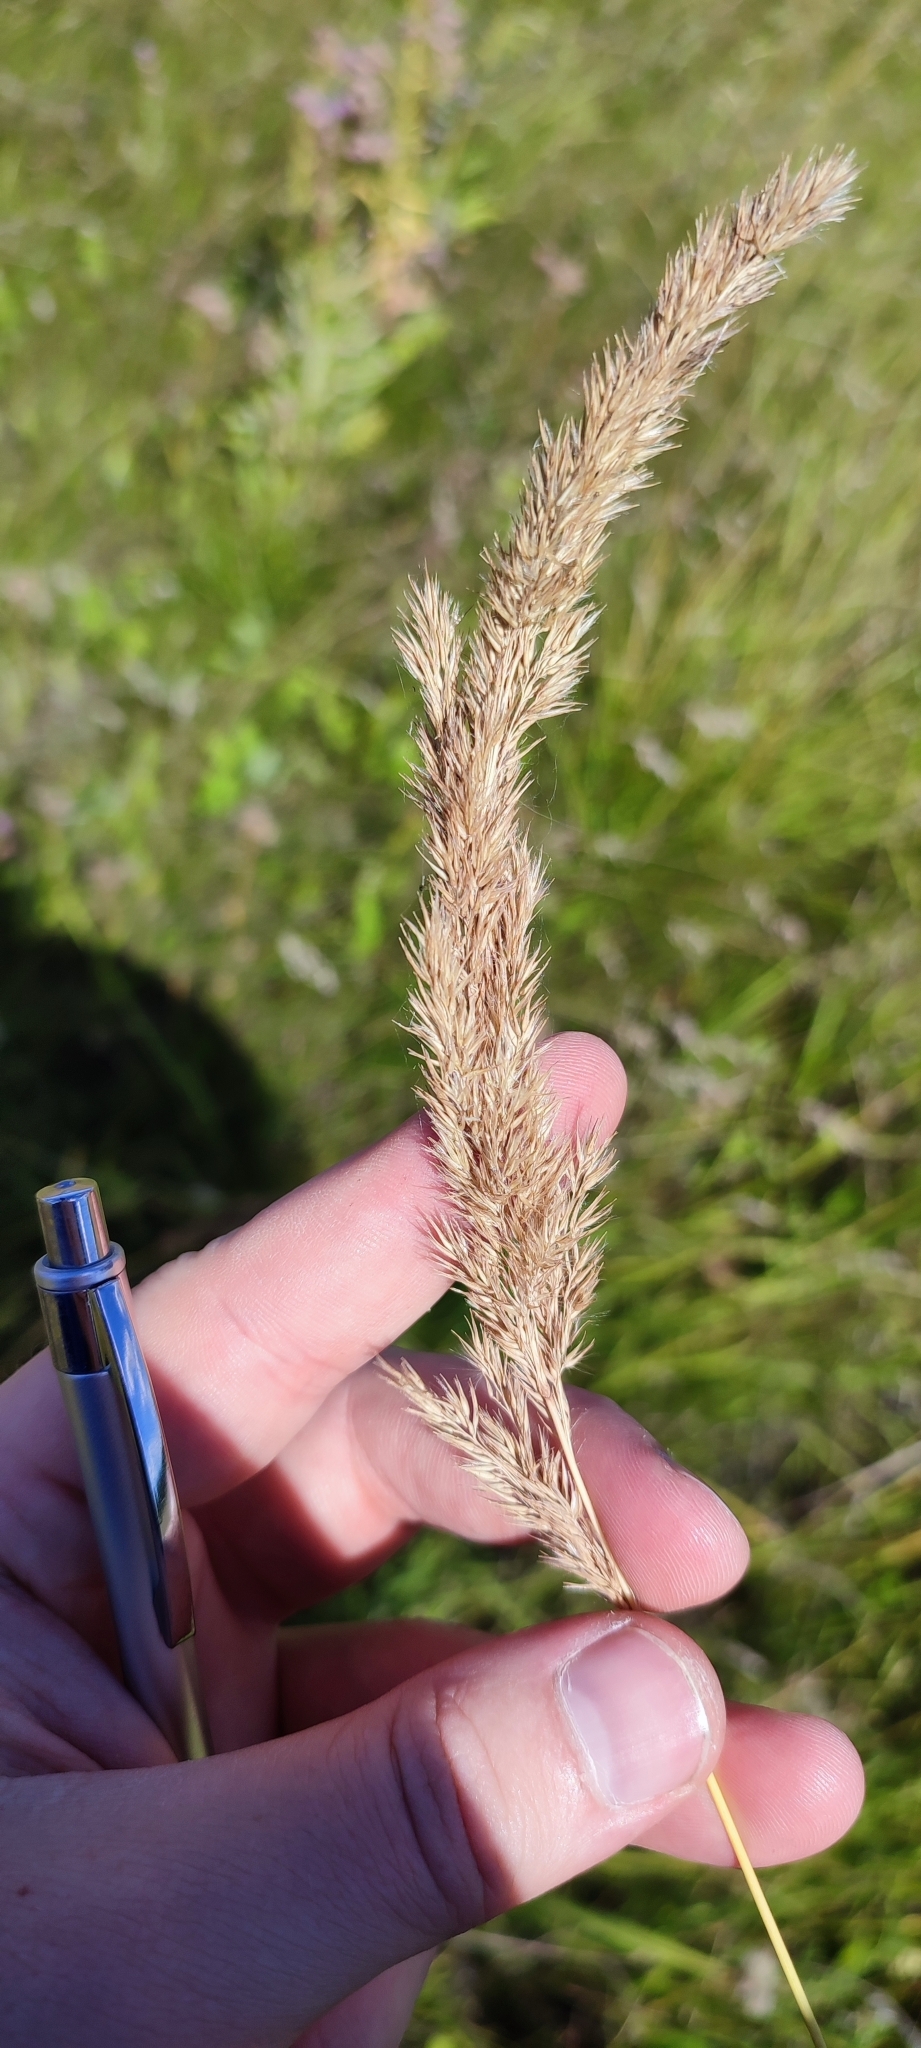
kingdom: Plantae
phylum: Tracheophyta
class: Liliopsida
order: Poales
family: Poaceae
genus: Calamagrostis
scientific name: Calamagrostis epigejos
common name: Wood small-reed
